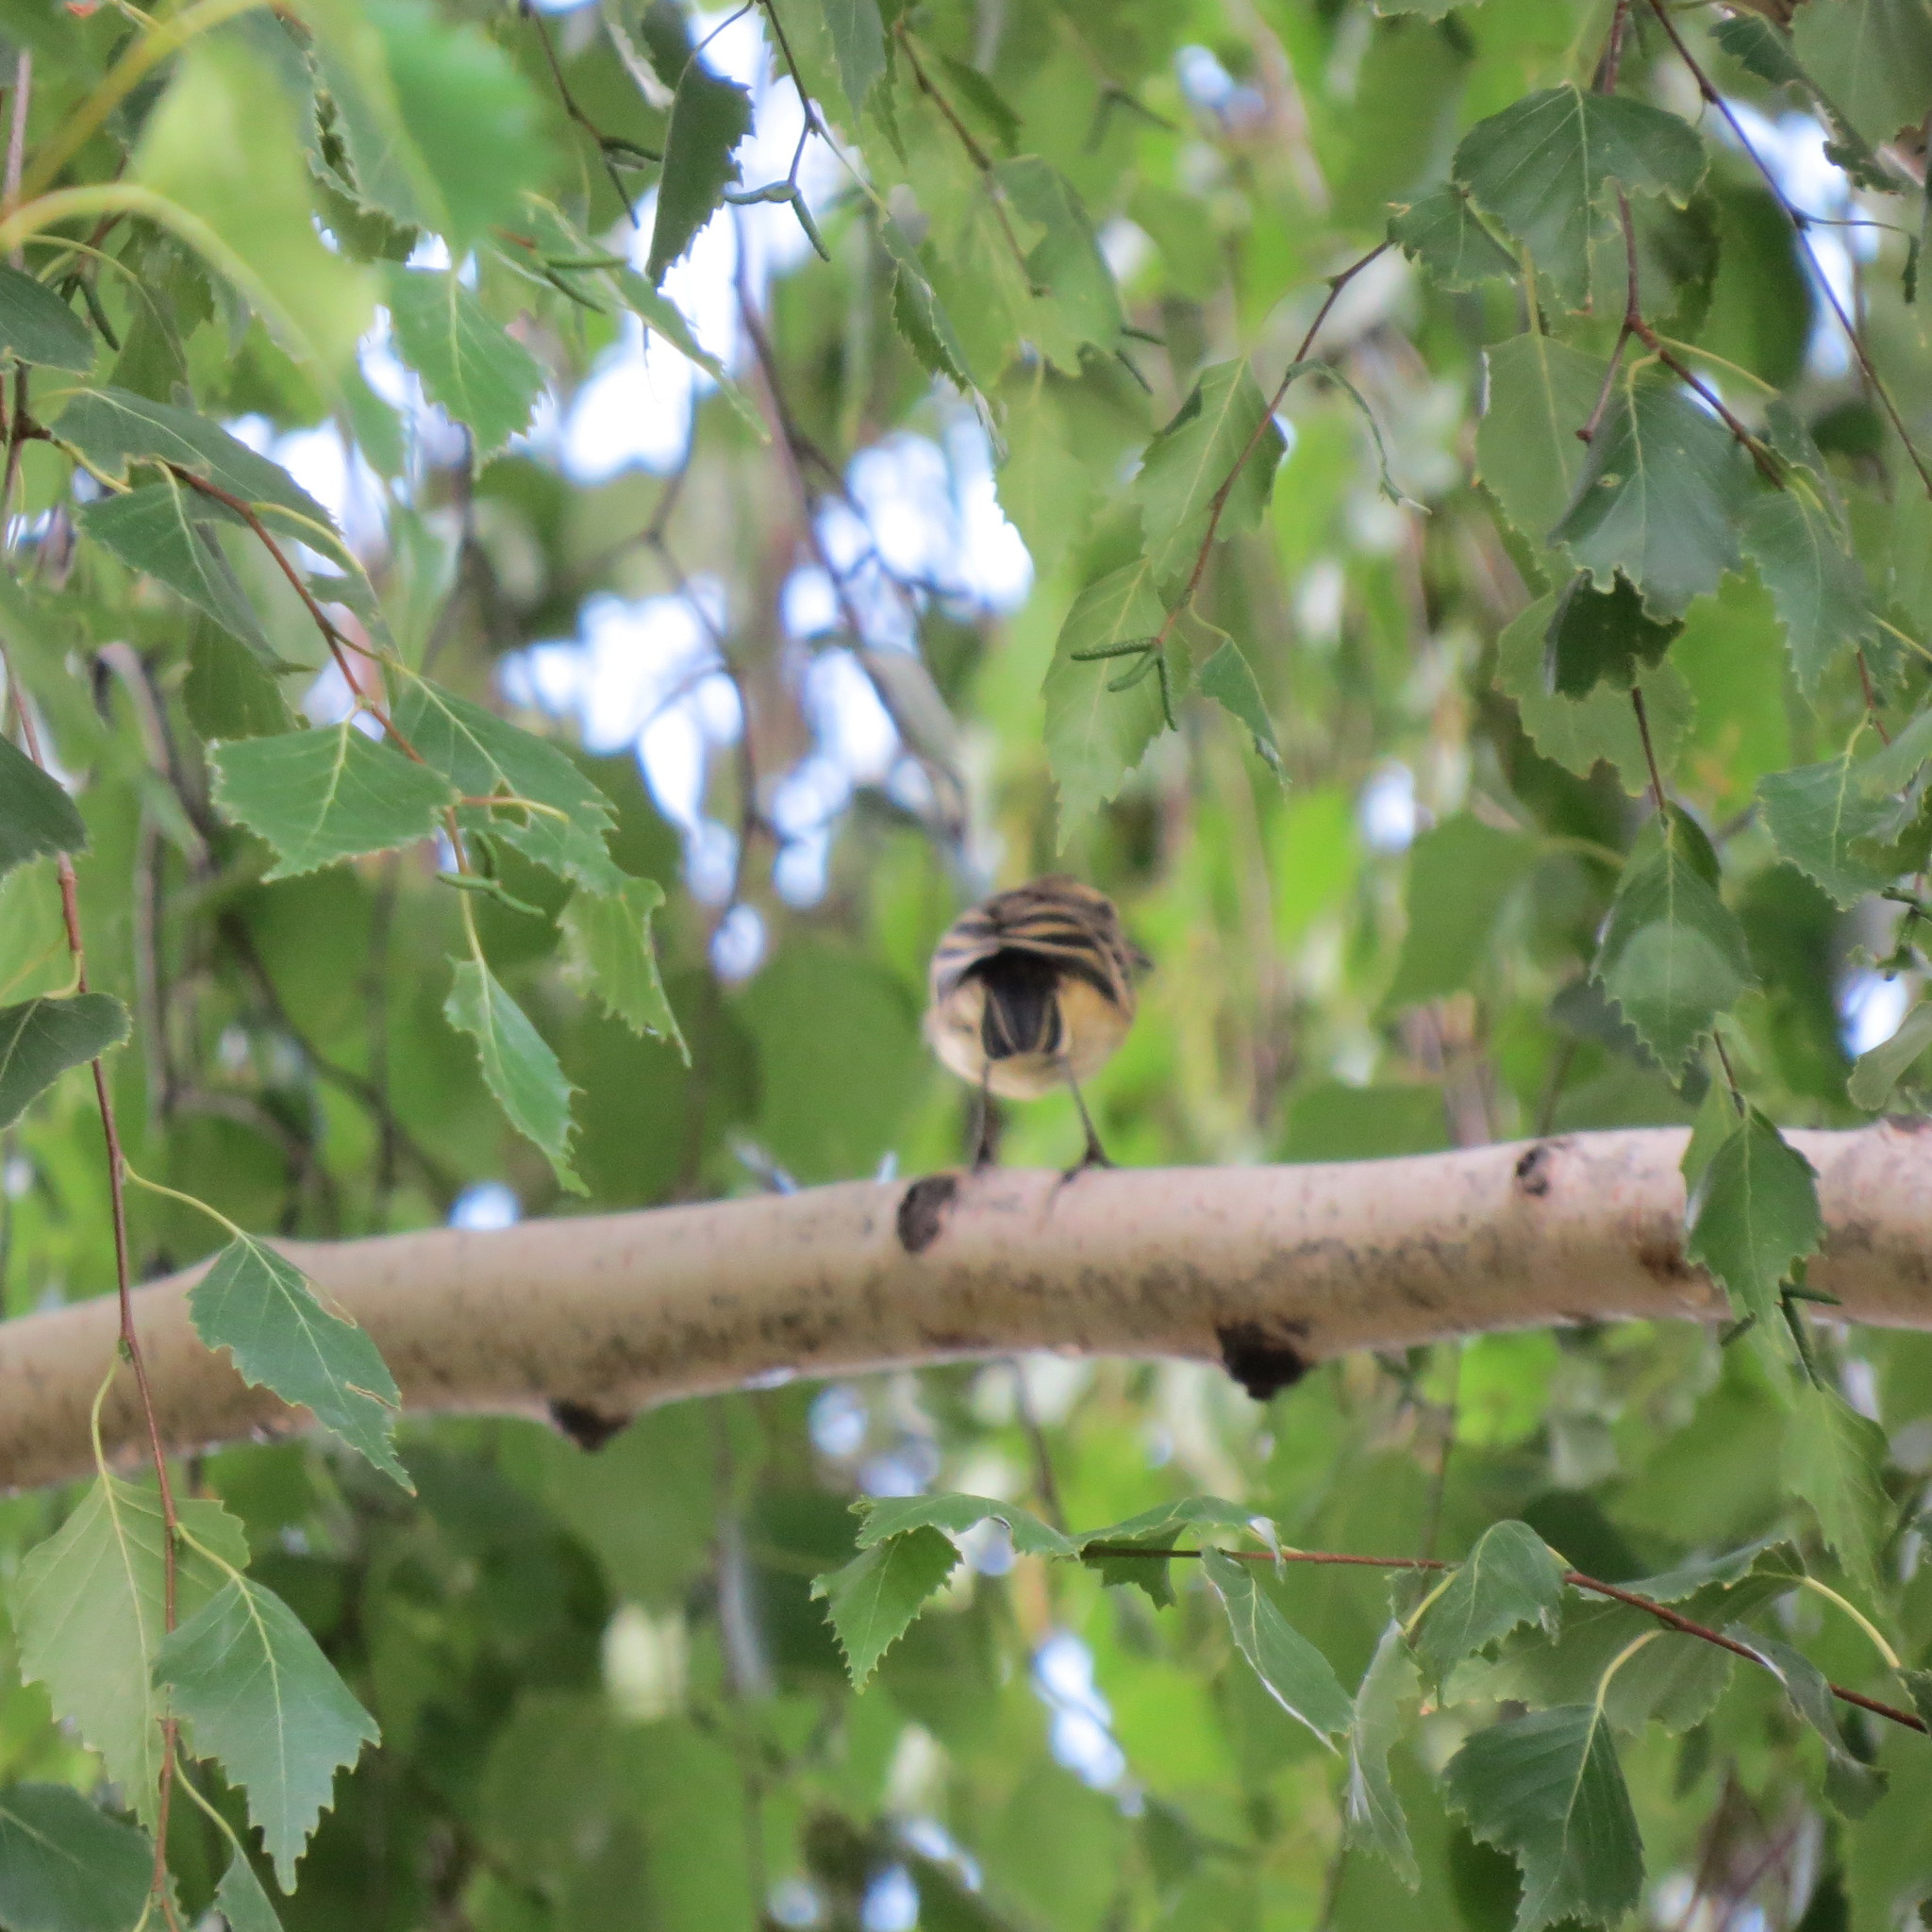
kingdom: Animalia
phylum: Chordata
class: Aves
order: Passeriformes
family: Motacillidae
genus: Motacilla
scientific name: Motacilla flava
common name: Western yellow wagtail
